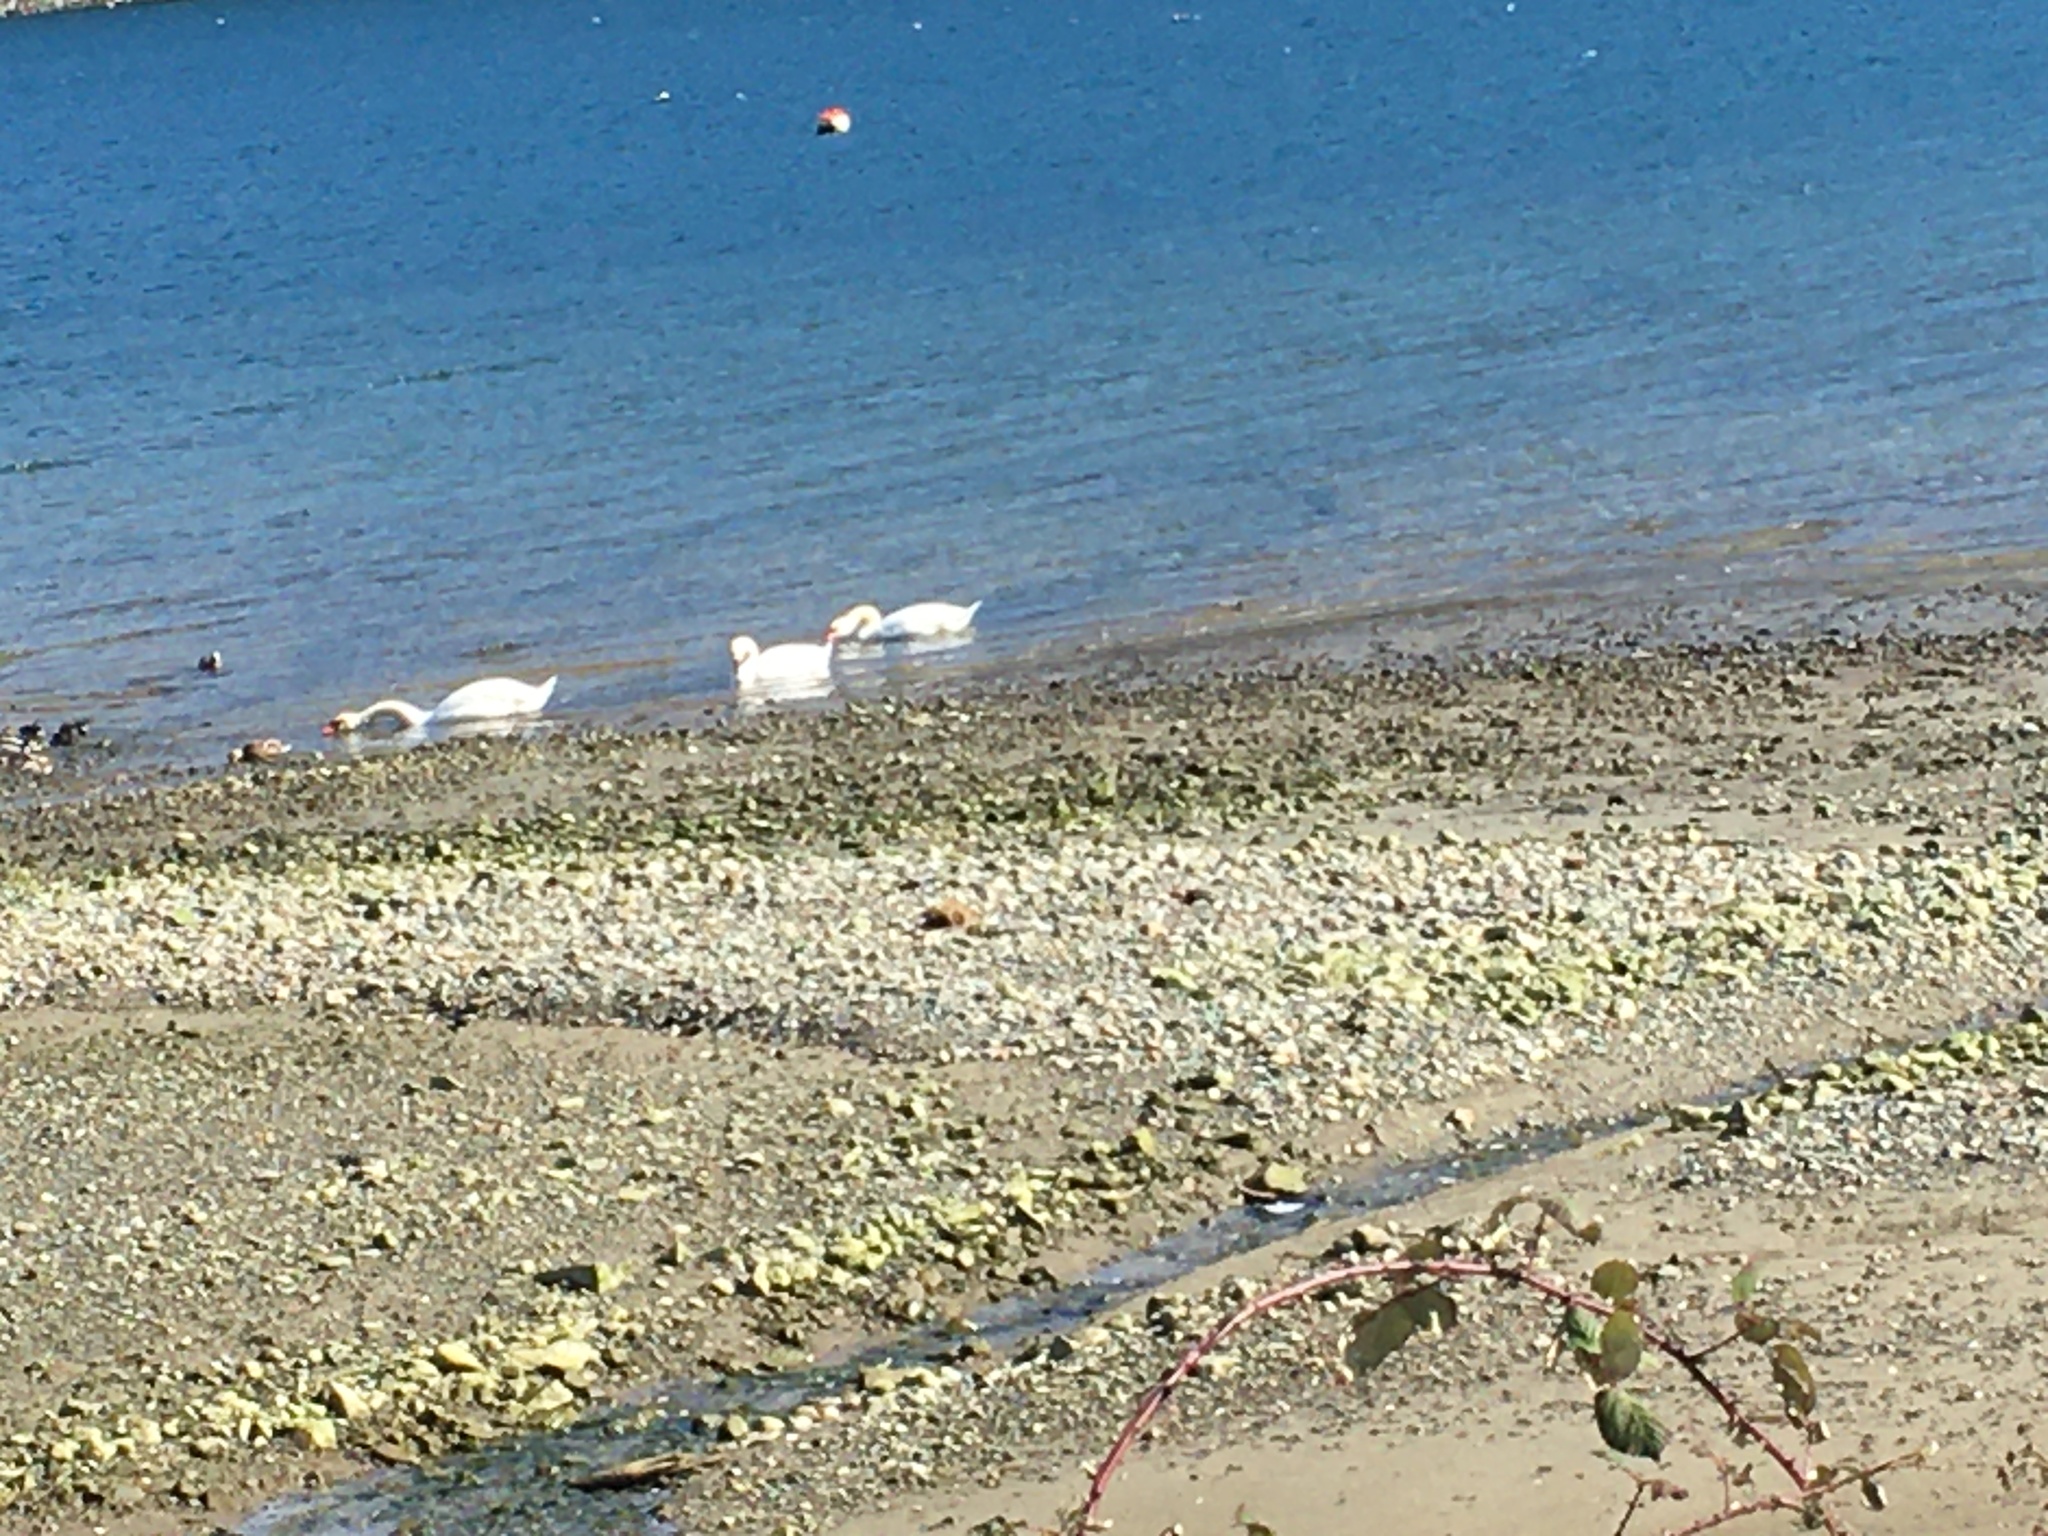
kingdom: Animalia
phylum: Chordata
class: Aves
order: Anseriformes
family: Anatidae
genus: Cygnus
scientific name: Cygnus olor
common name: Mute swan
